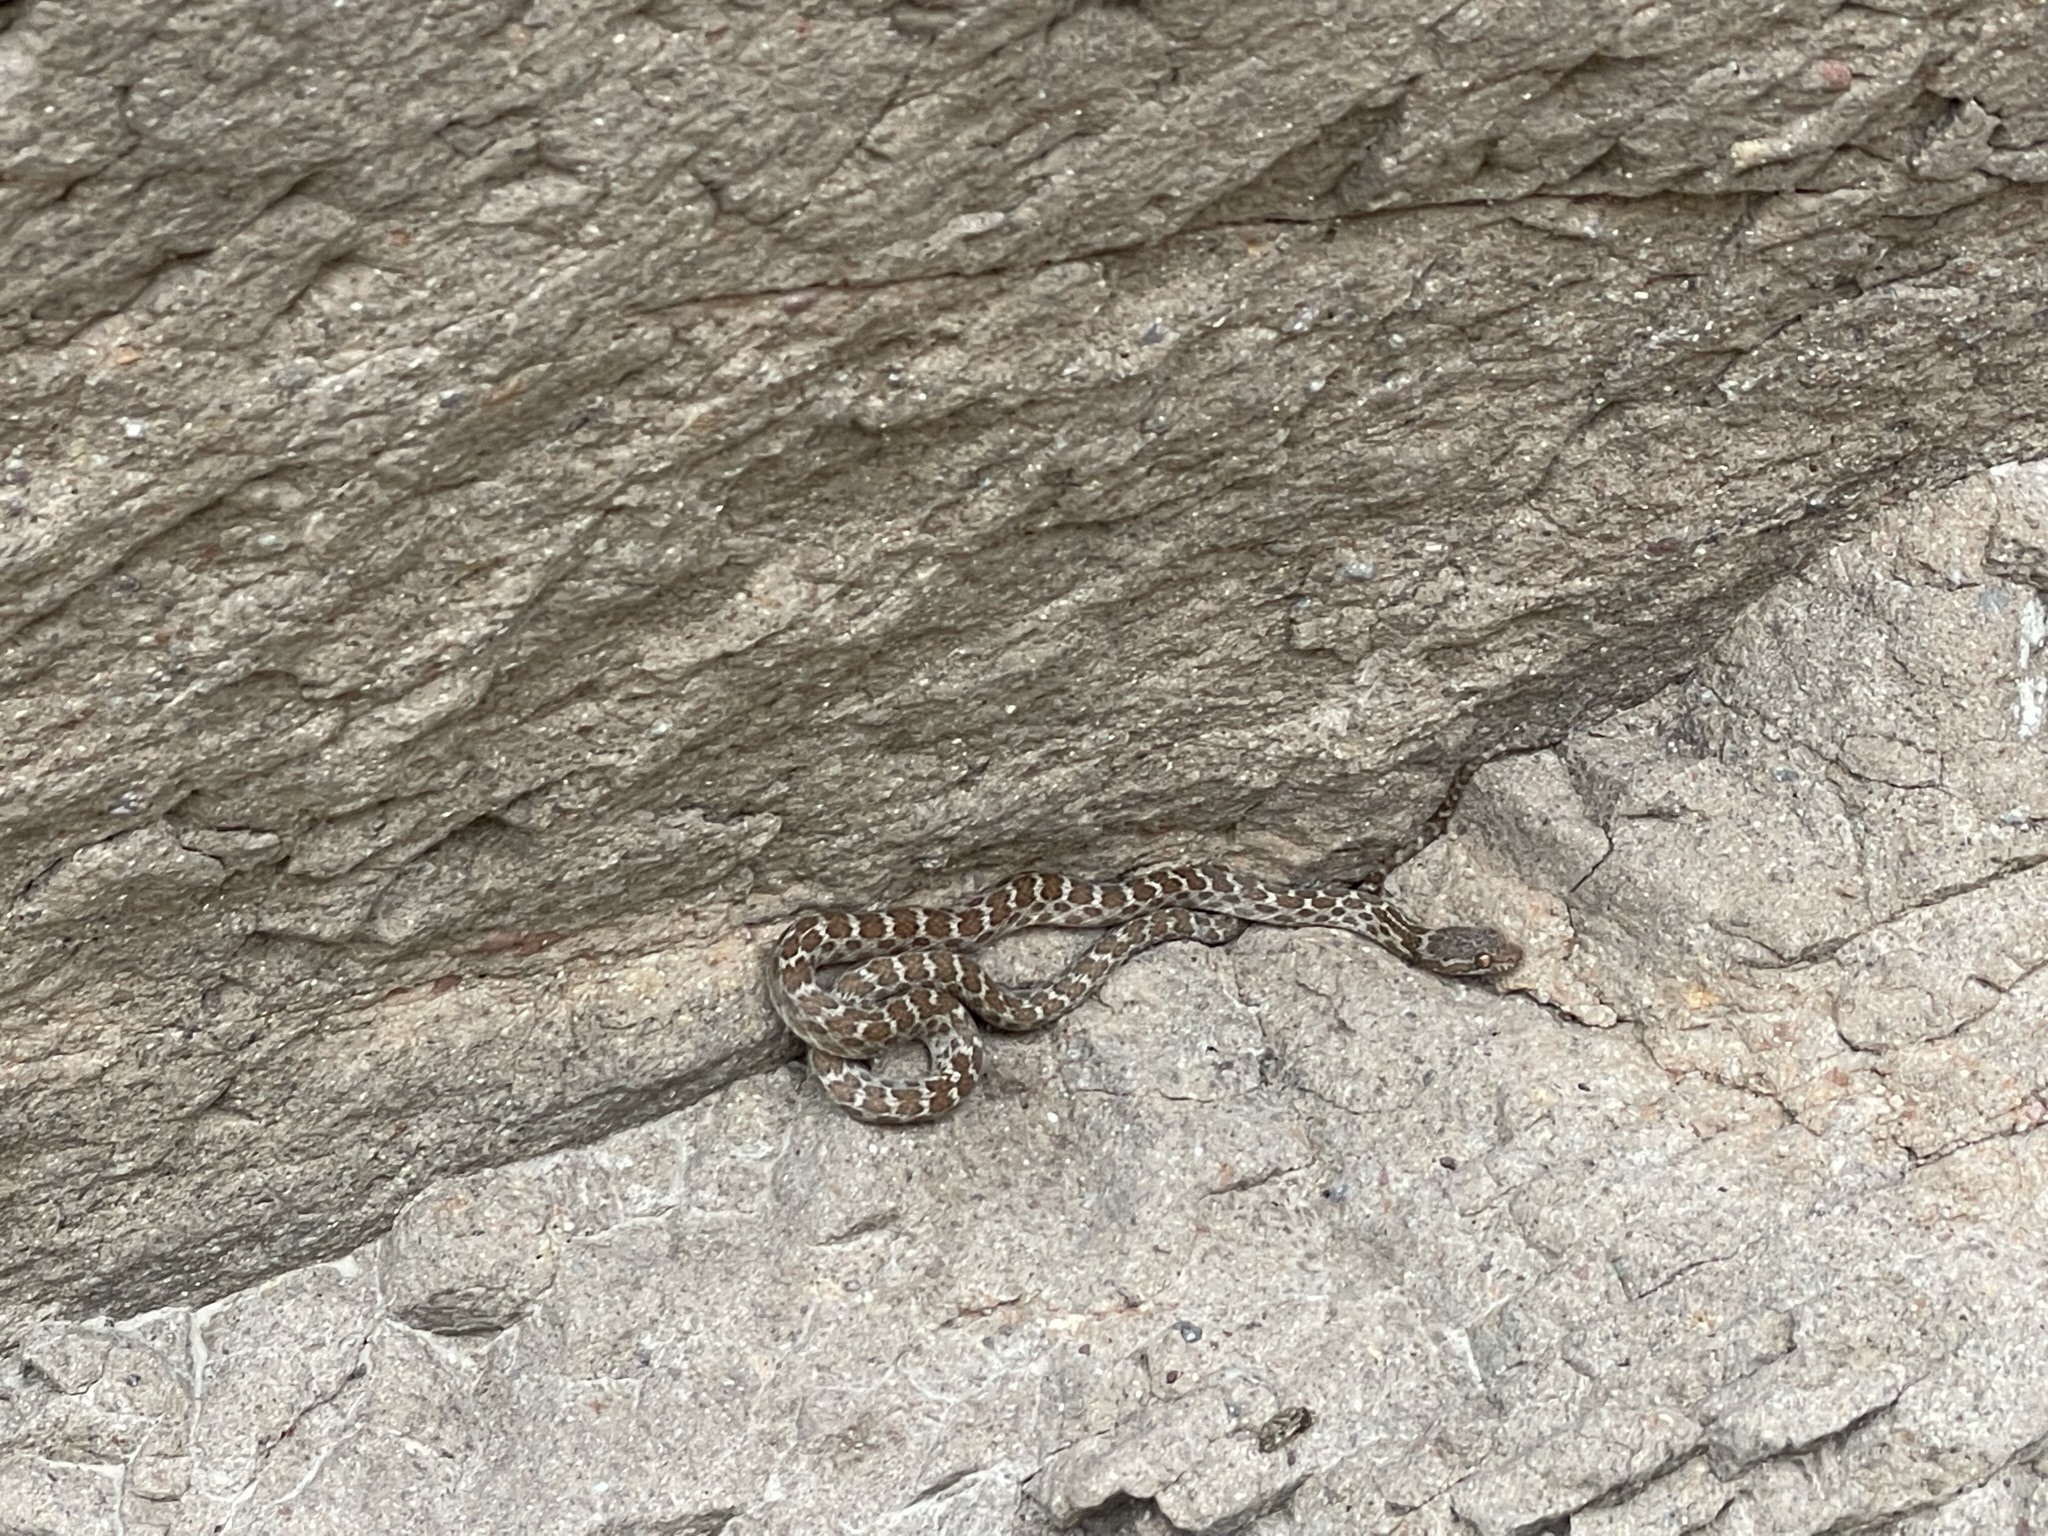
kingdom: Animalia
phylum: Chordata
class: Squamata
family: Colubridae
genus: Hypsiglena
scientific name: Hypsiglena slevini
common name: Baja california night snake
